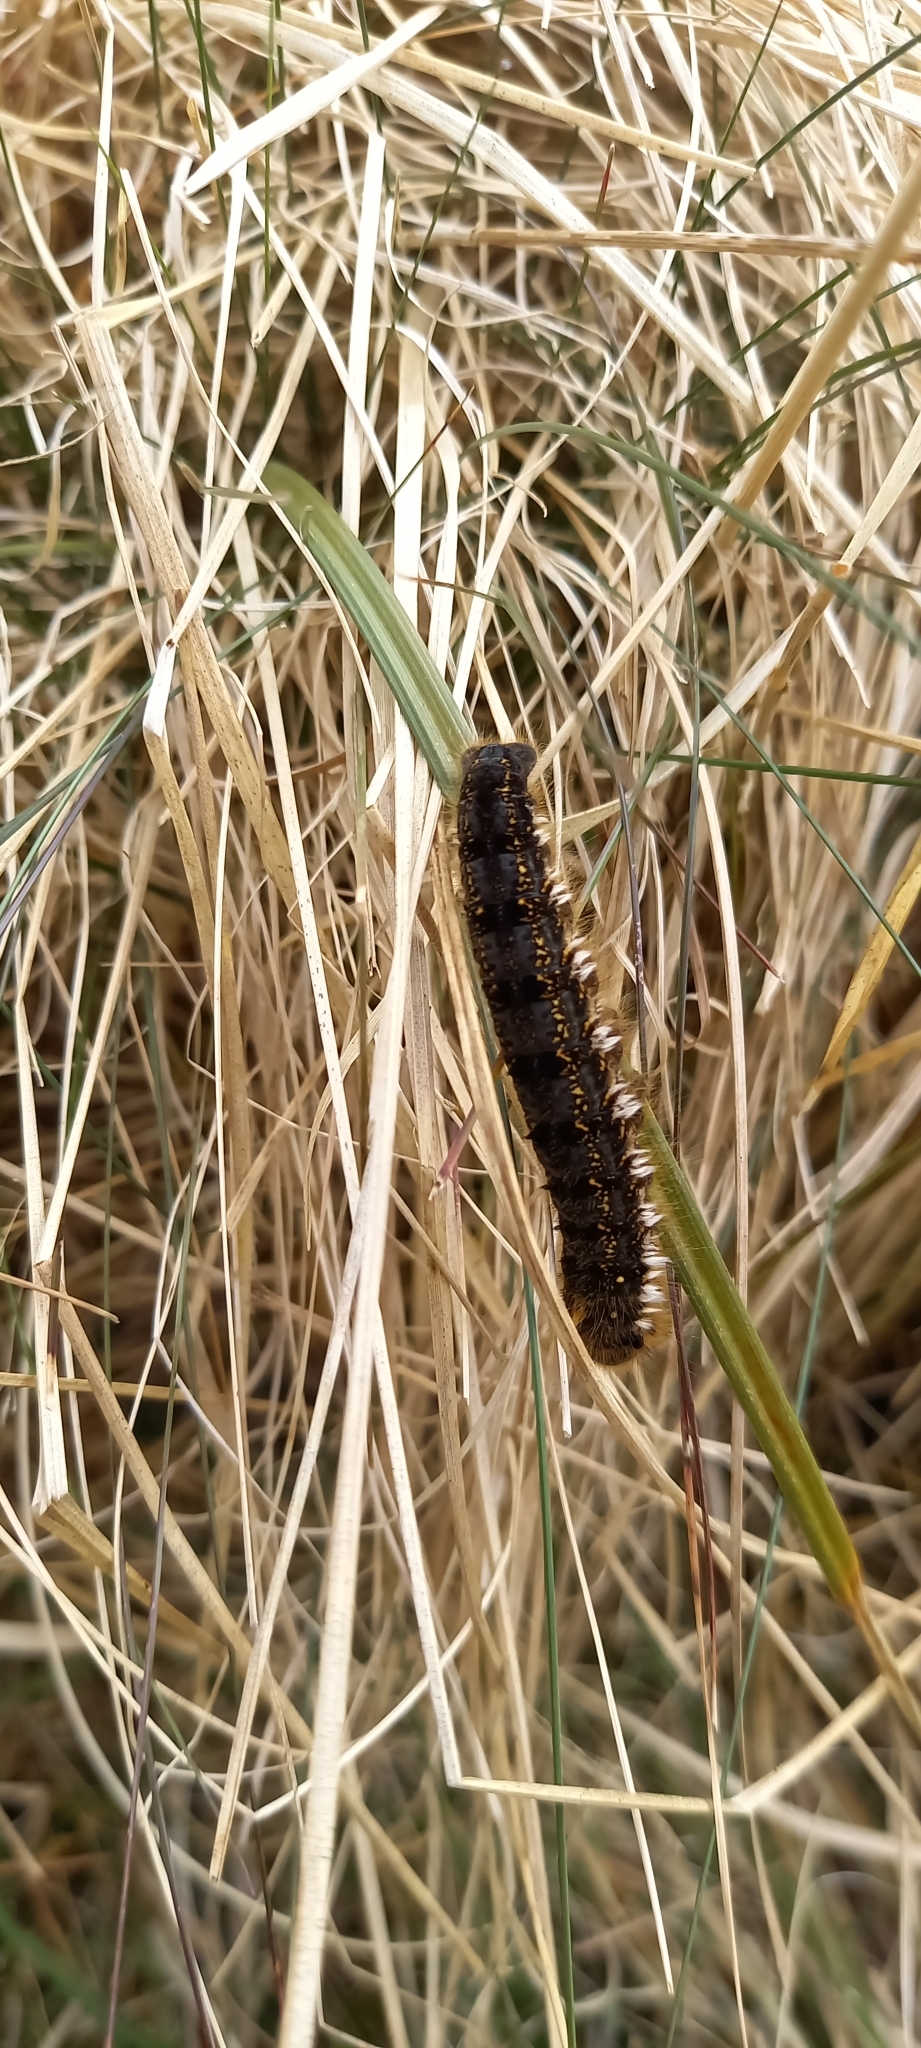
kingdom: Animalia
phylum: Arthropoda
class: Insecta
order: Lepidoptera
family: Lasiocampidae
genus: Euthrix
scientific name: Euthrix potatoria
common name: Drinker
